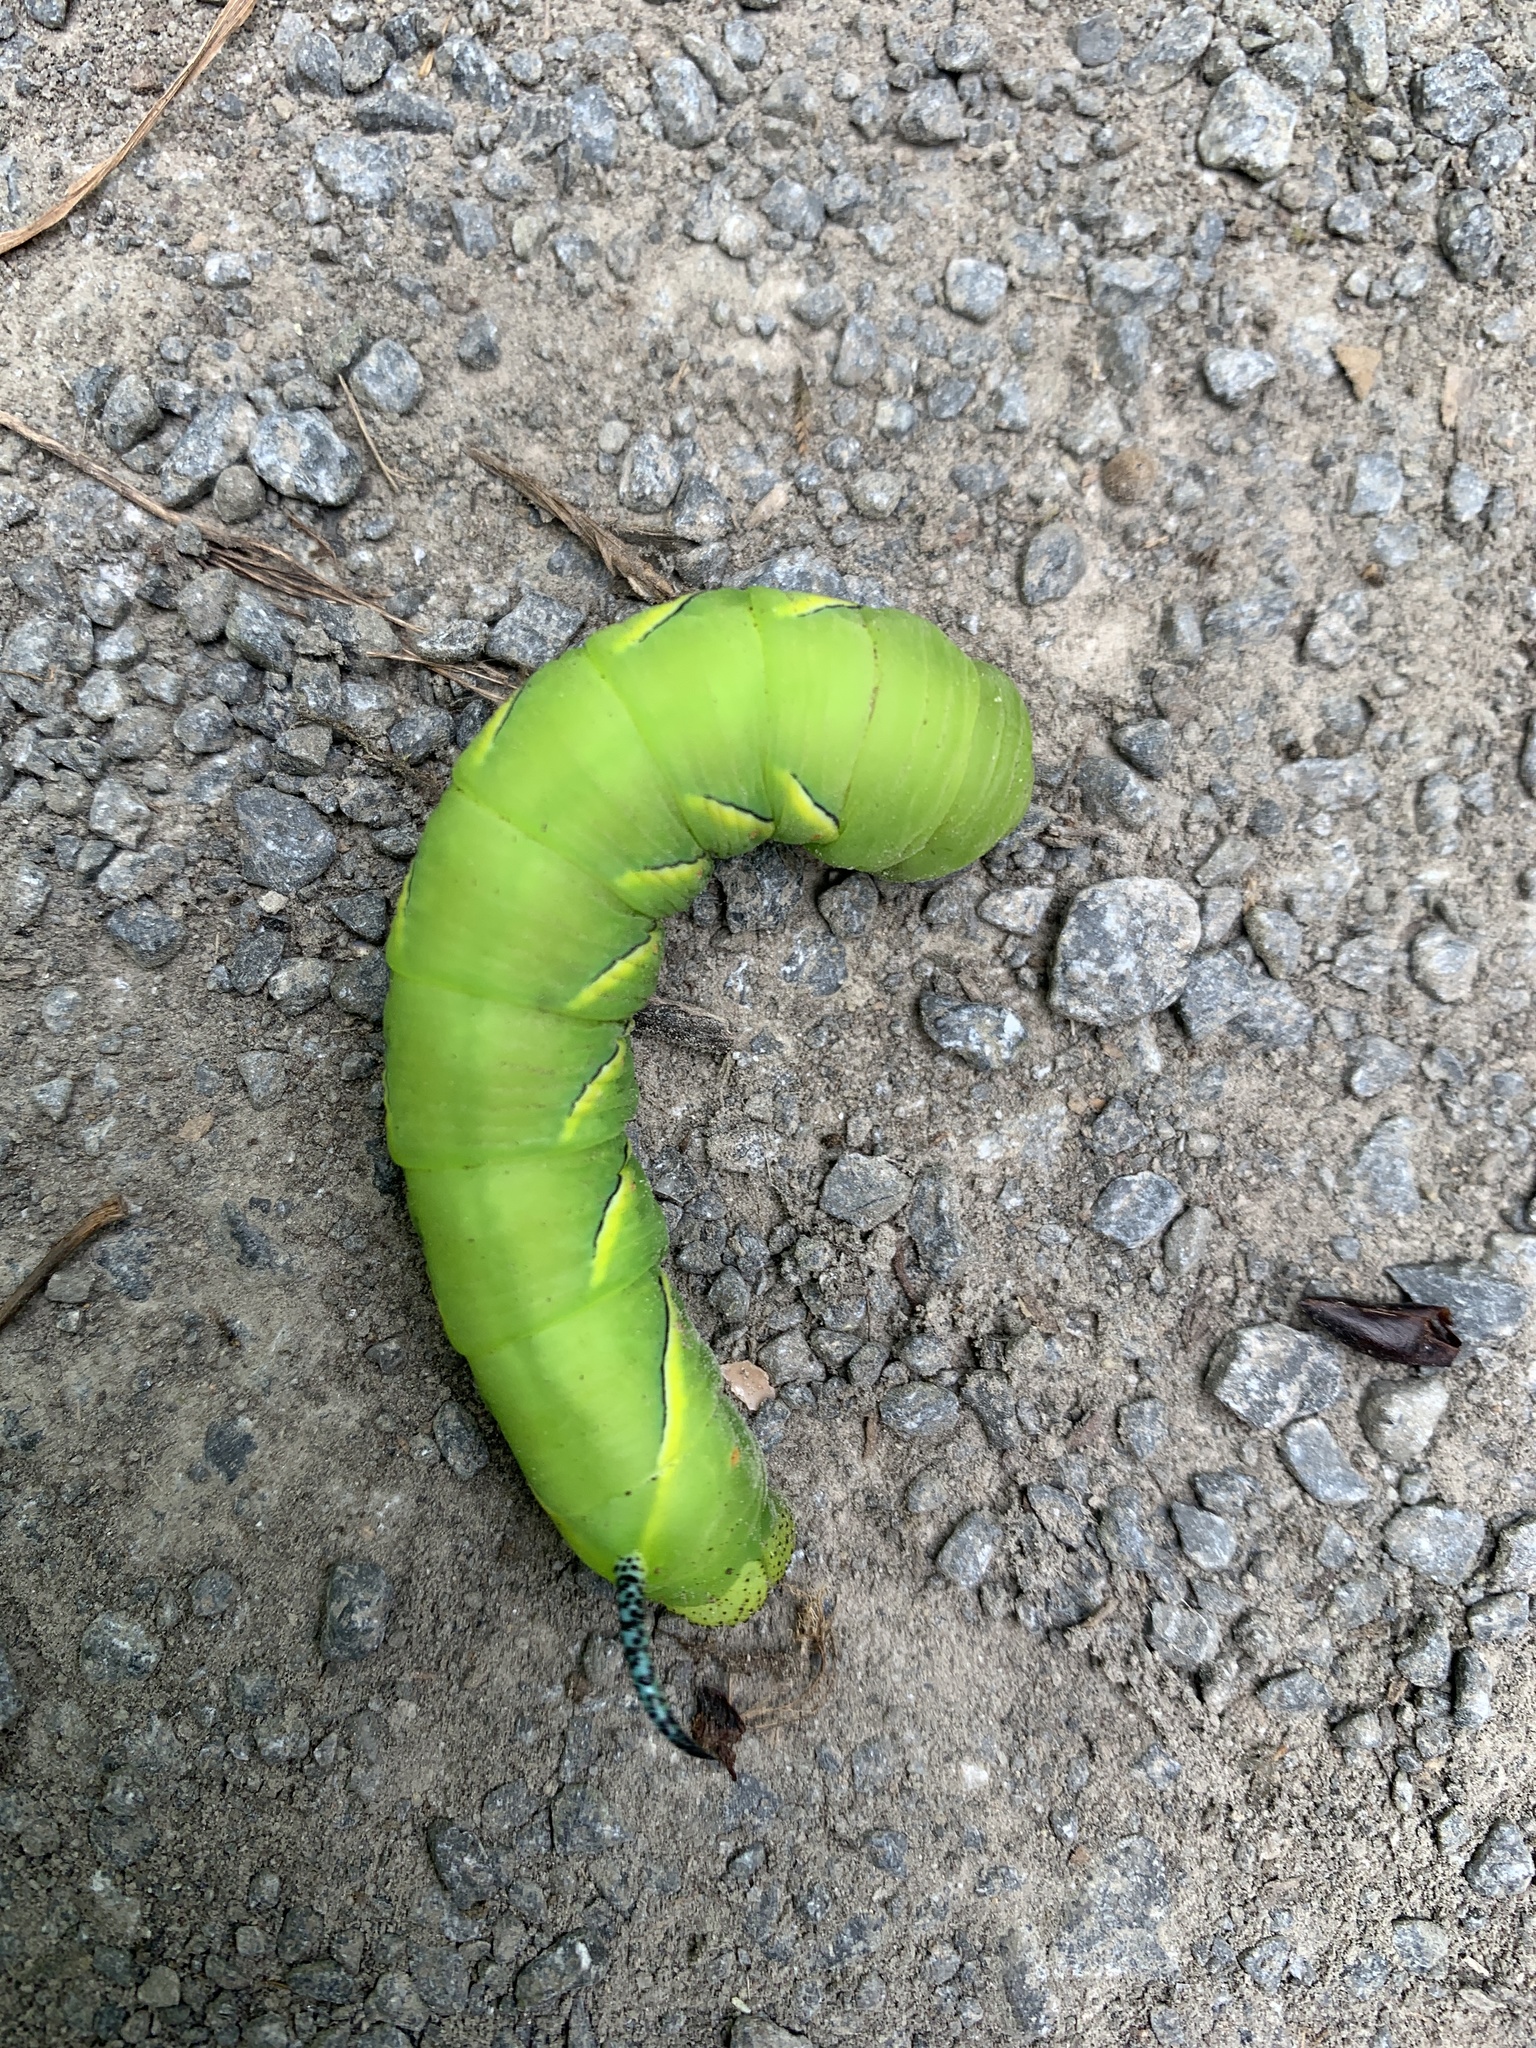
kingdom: Animalia
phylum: Arthropoda
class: Insecta
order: Lepidoptera
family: Sphingidae
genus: Sphinx
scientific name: Sphinx kalmiae
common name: Laurel sphinx
